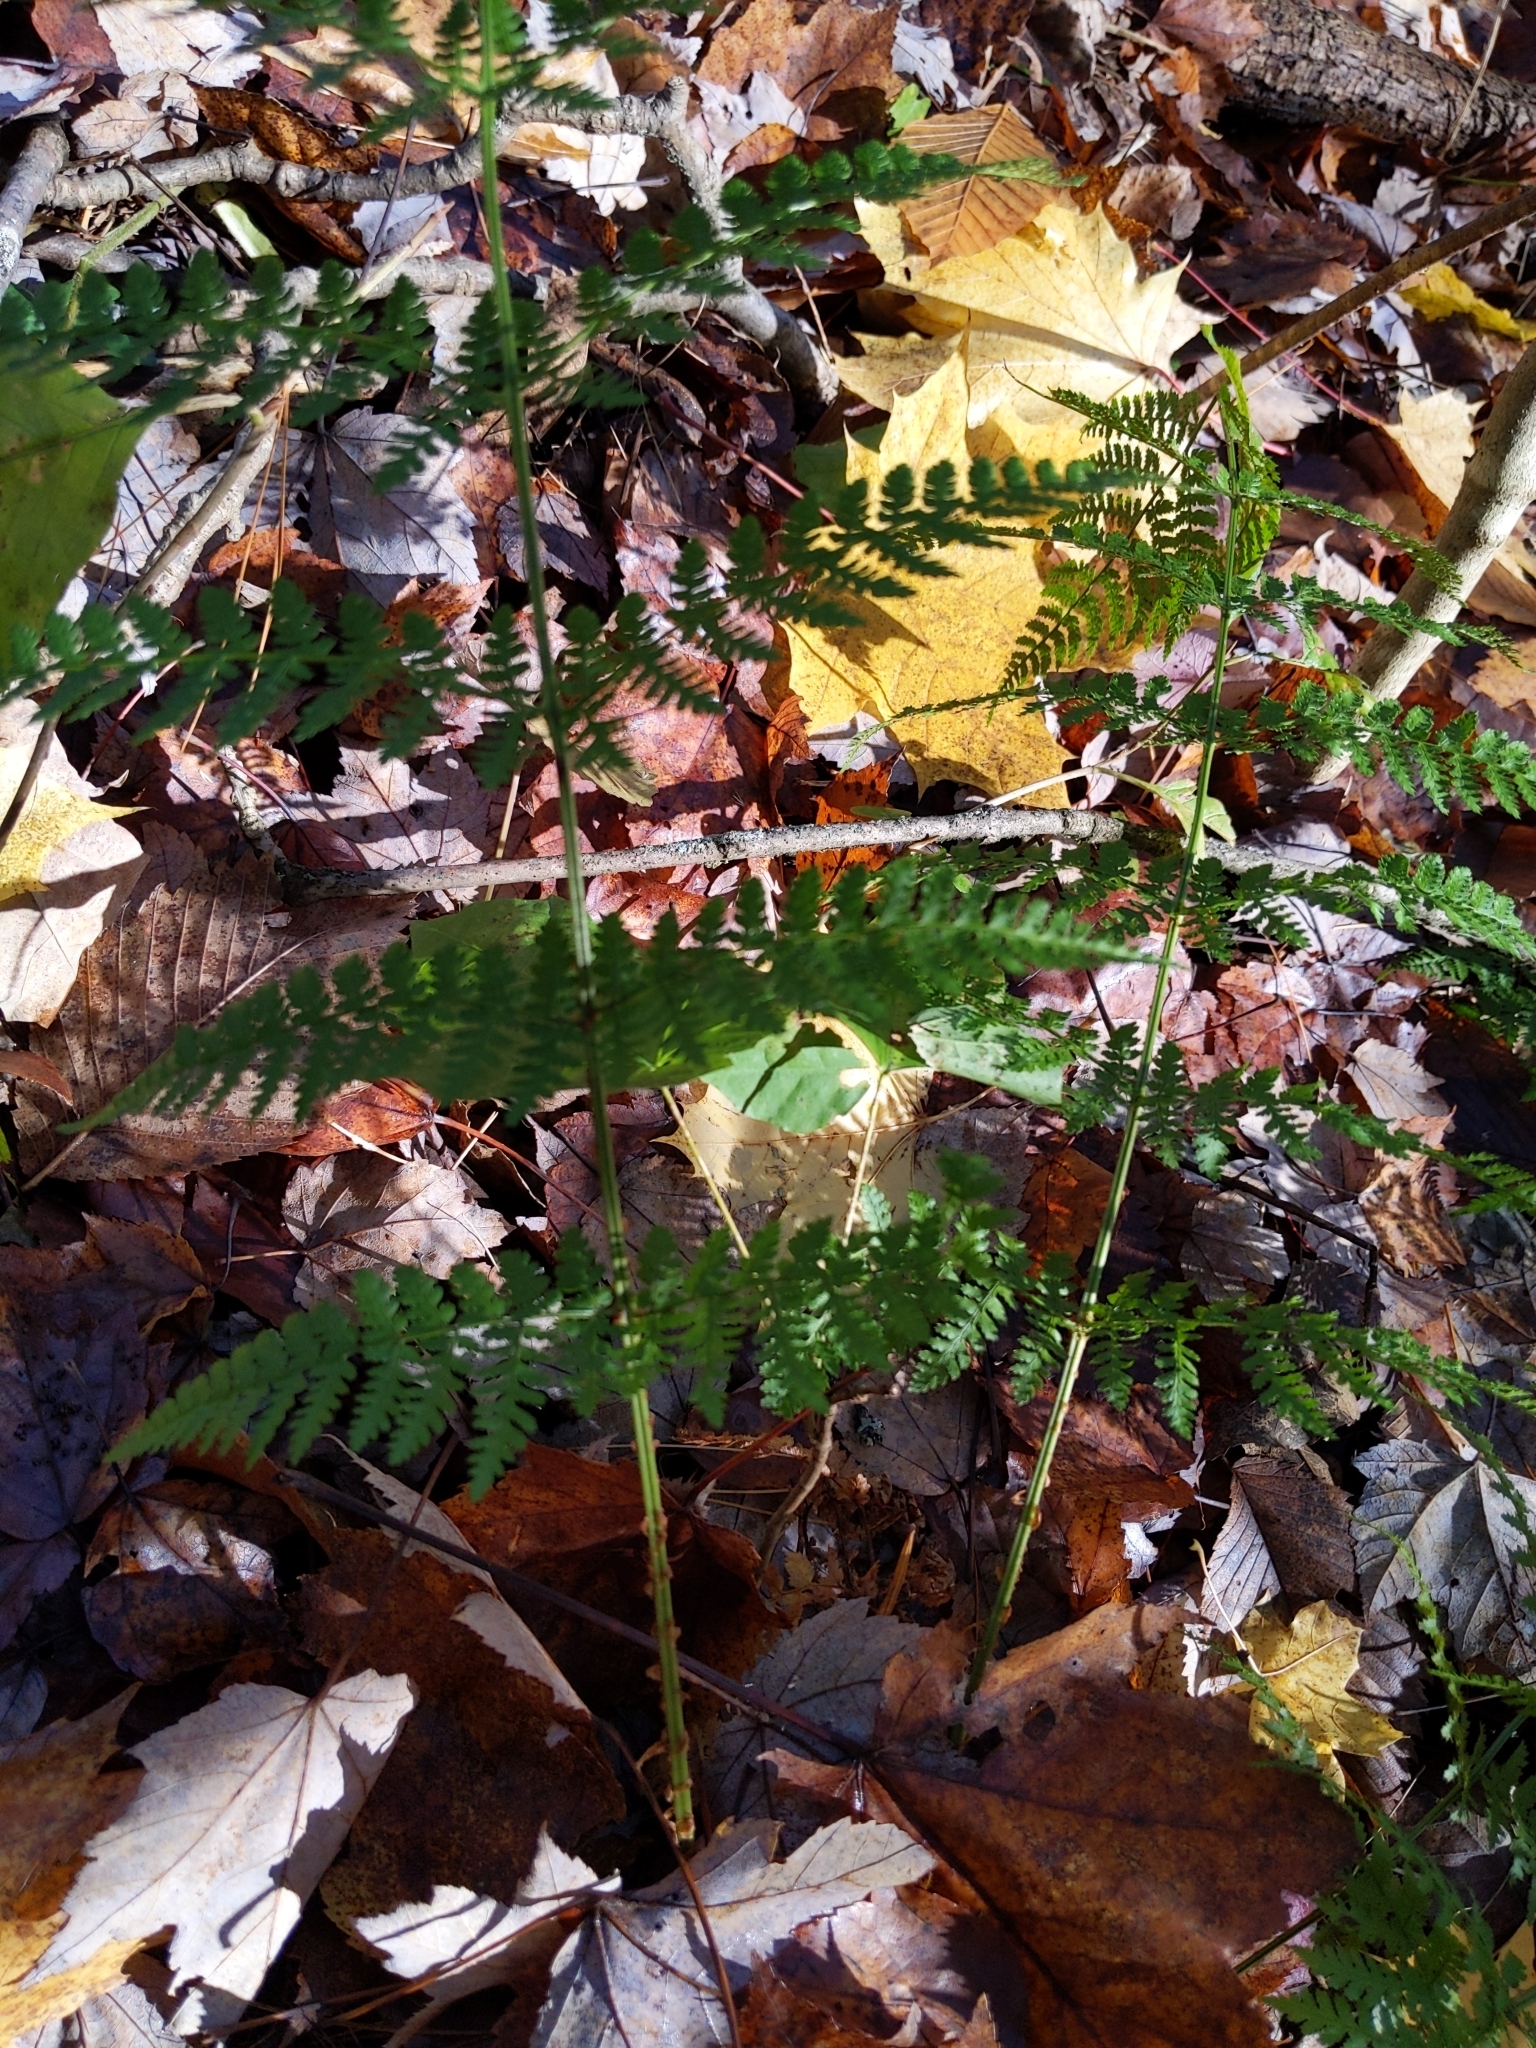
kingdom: Plantae
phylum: Tracheophyta
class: Polypodiopsida
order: Polypodiales
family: Dryopteridaceae
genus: Dryopteris
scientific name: Dryopteris intermedia
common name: Evergreen wood fern
